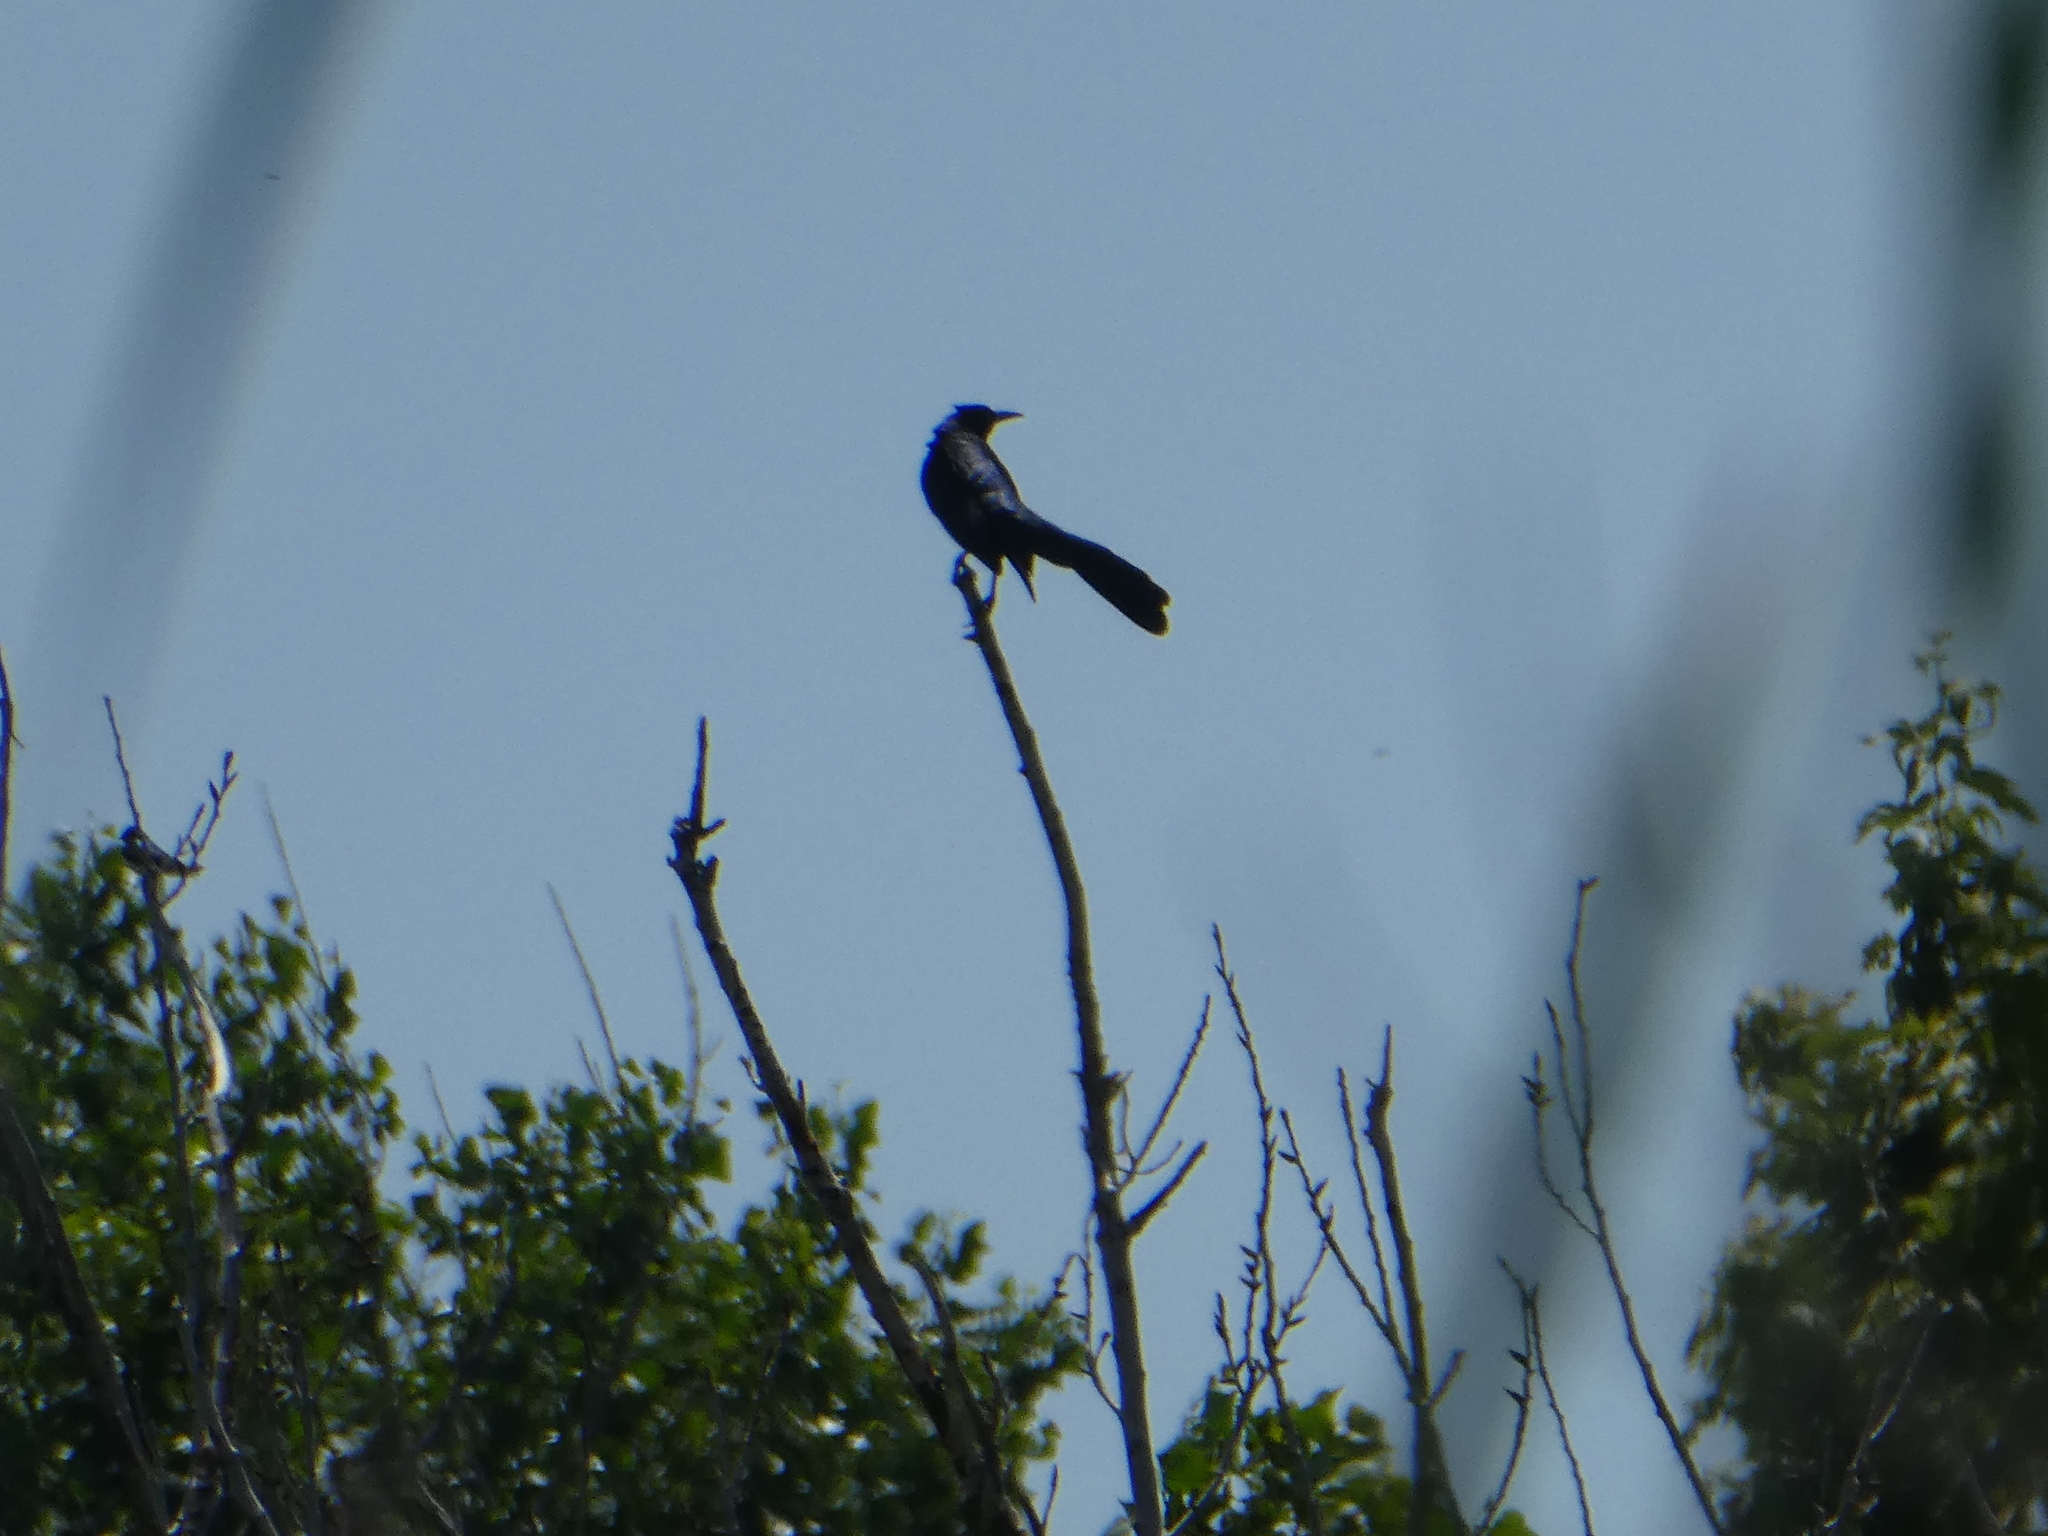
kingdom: Animalia
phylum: Chordata
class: Aves
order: Passeriformes
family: Icteridae
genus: Quiscalus
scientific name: Quiscalus mexicanus
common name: Great-tailed grackle
